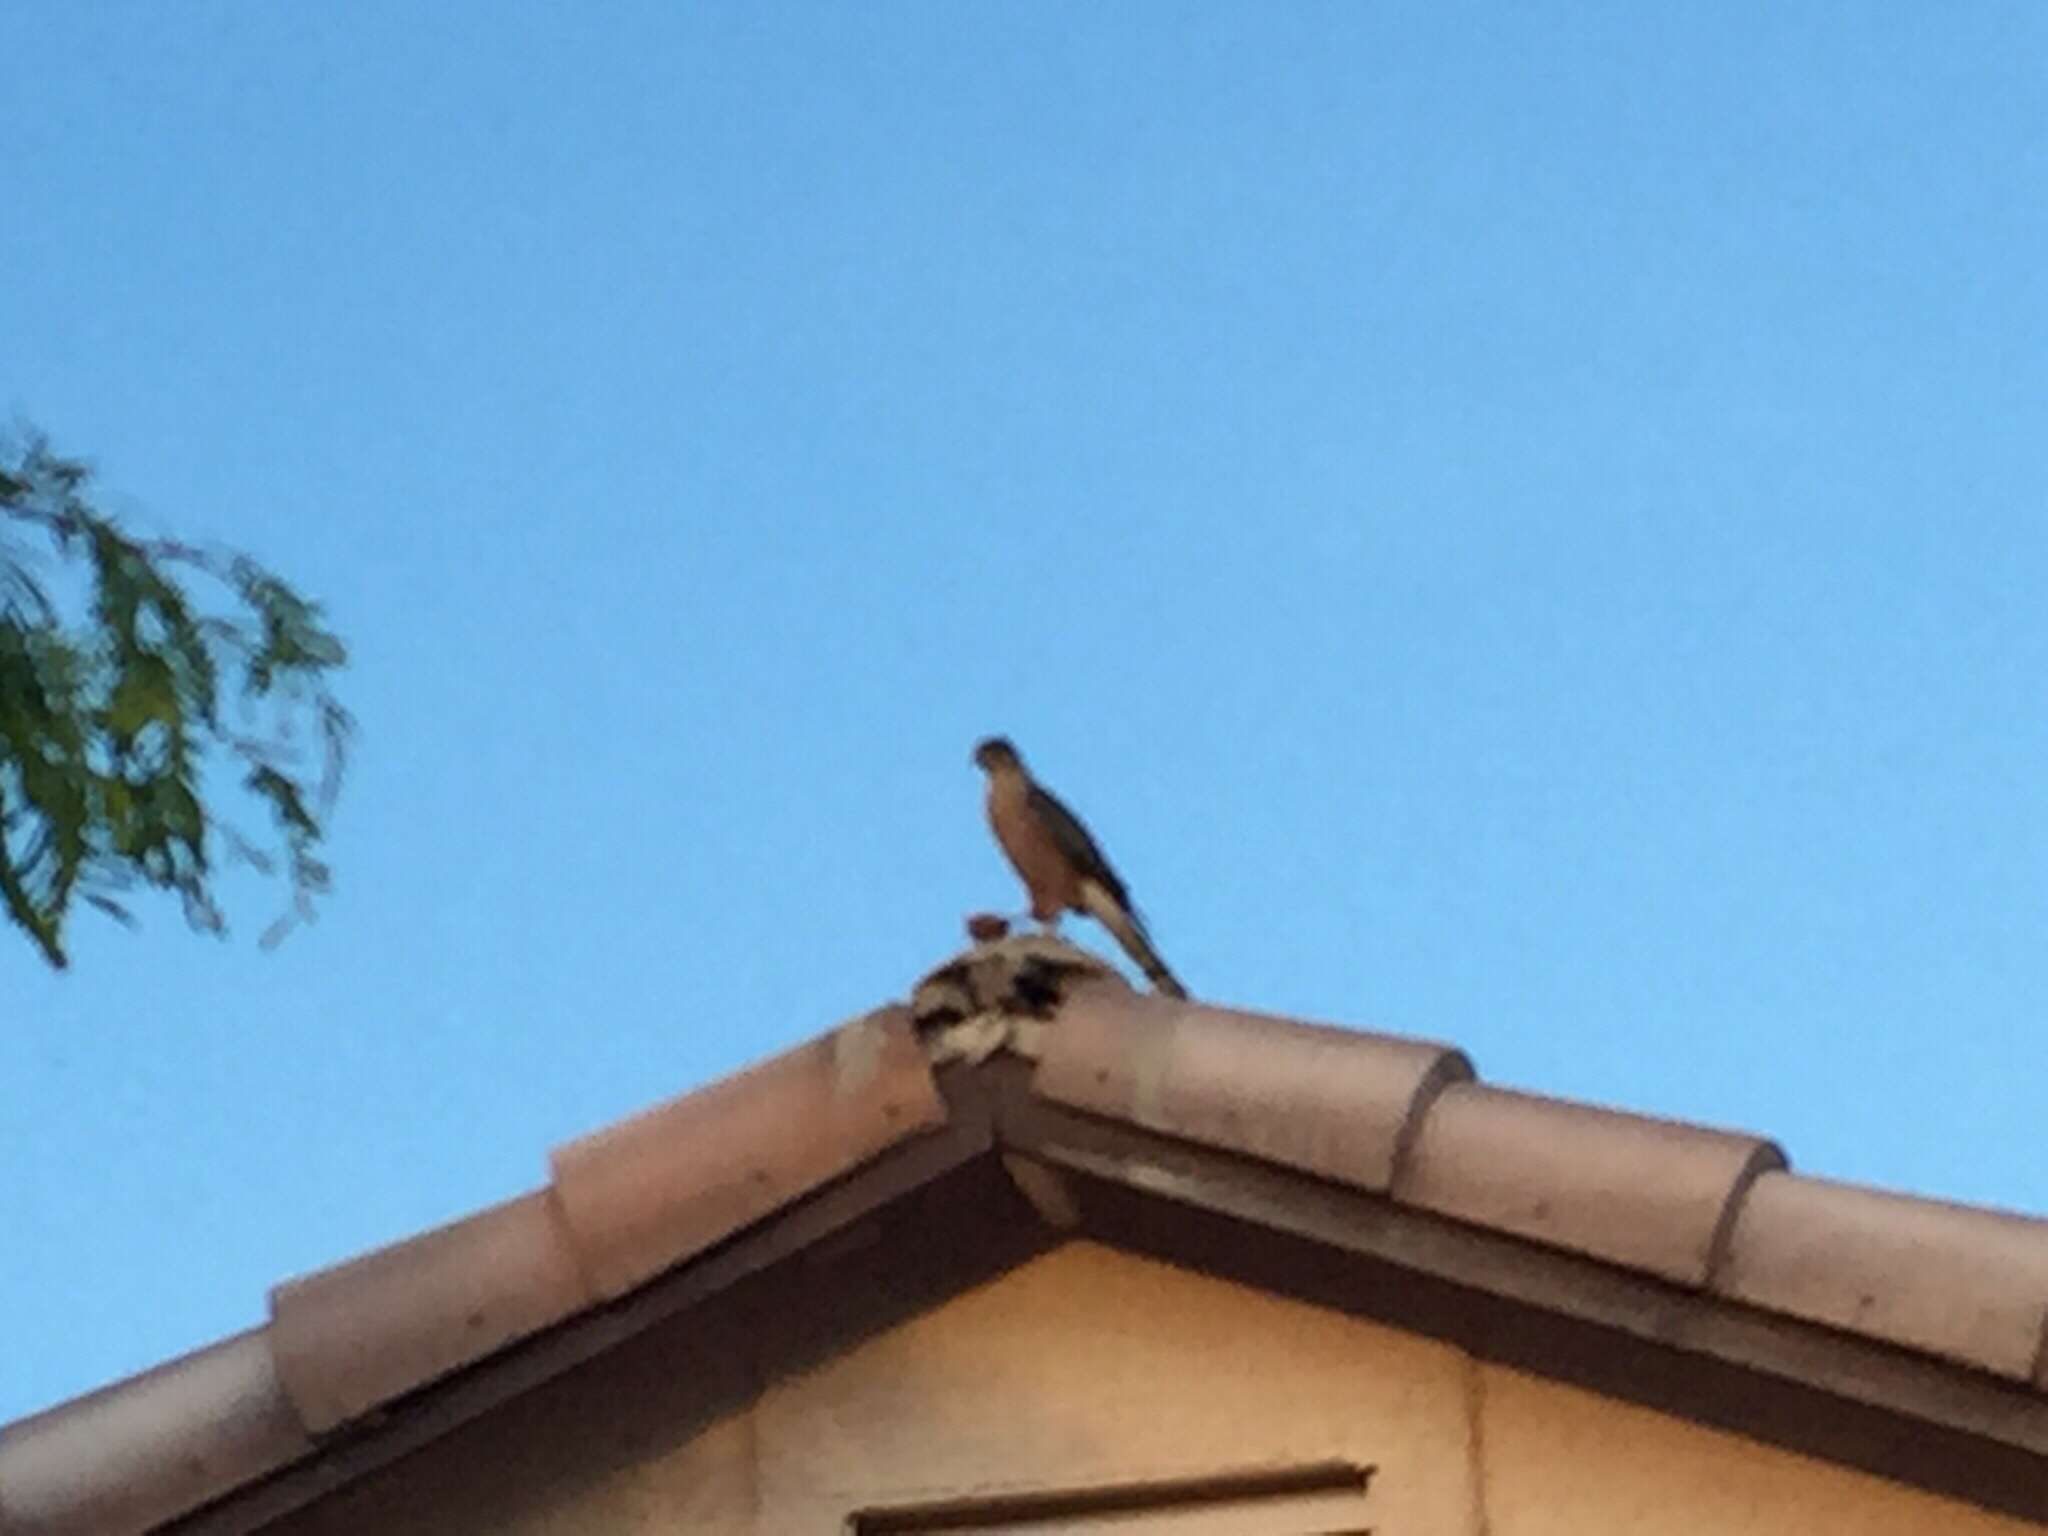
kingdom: Animalia
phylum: Chordata
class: Aves
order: Accipitriformes
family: Accipitridae
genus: Accipiter
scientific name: Accipiter cooperii
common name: Cooper's hawk
